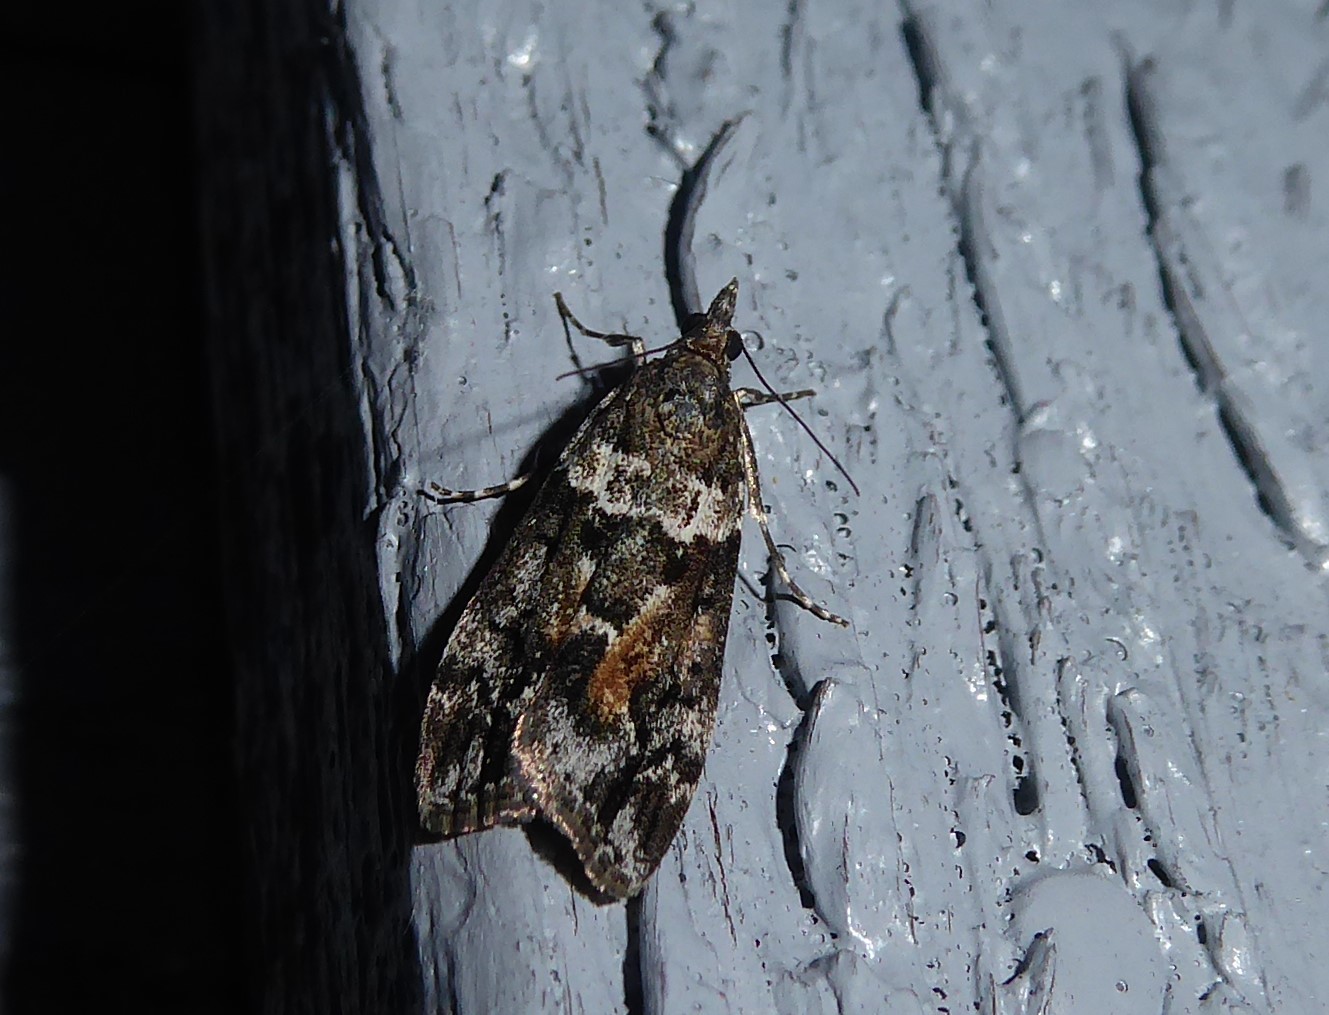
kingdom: Animalia
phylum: Arthropoda
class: Insecta
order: Lepidoptera
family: Crambidae
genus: Eudonia
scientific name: Eudonia submarginalis
